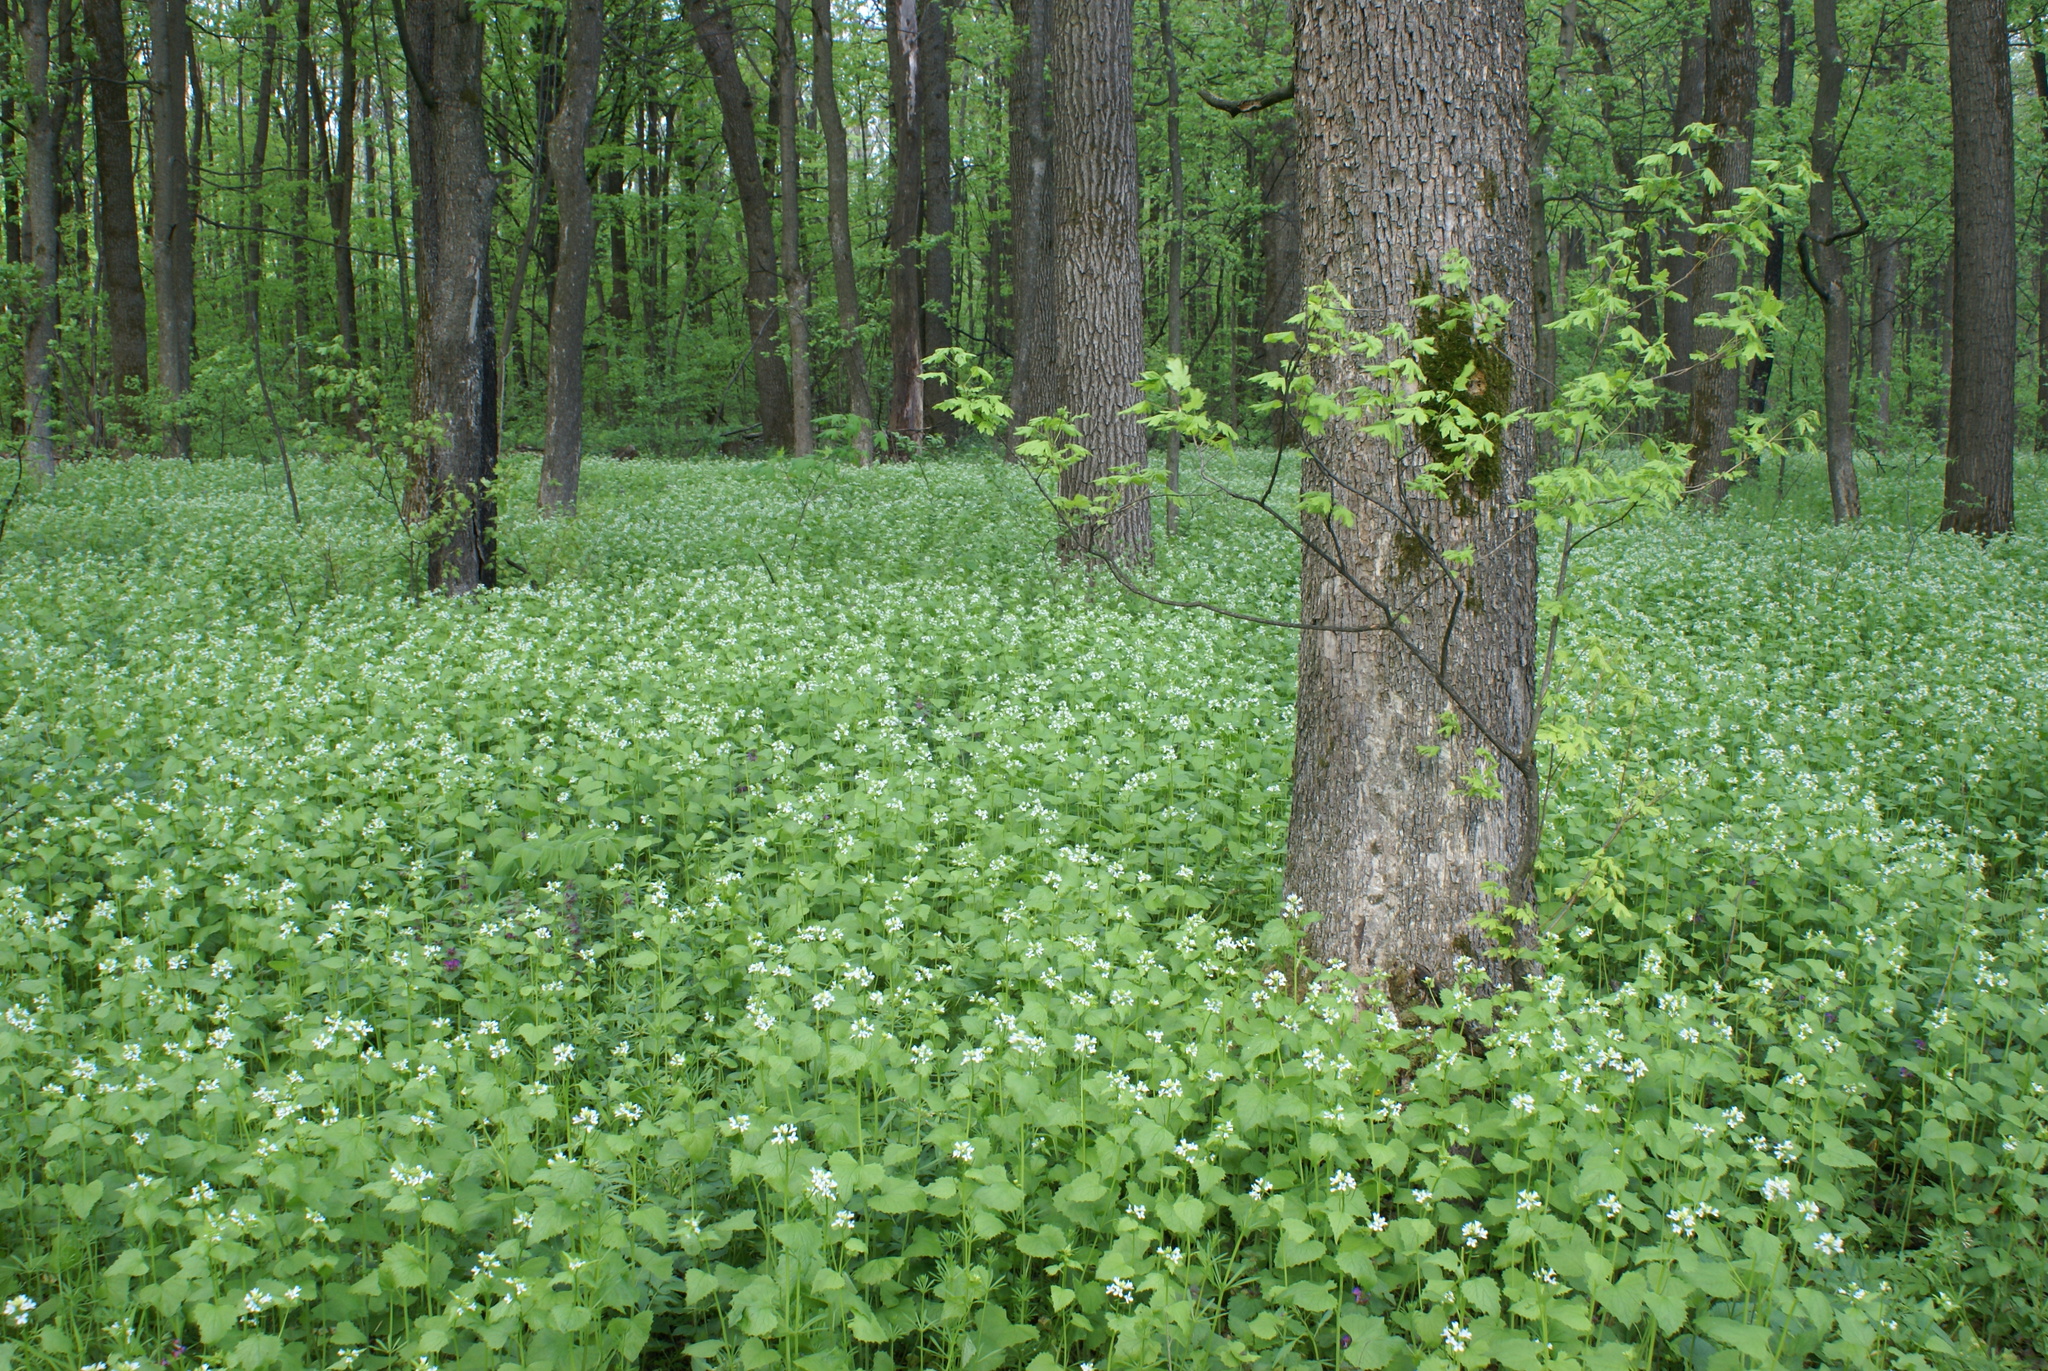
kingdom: Plantae
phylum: Tracheophyta
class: Magnoliopsida
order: Brassicales
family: Brassicaceae
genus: Alliaria
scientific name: Alliaria petiolata
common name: Garlic mustard
